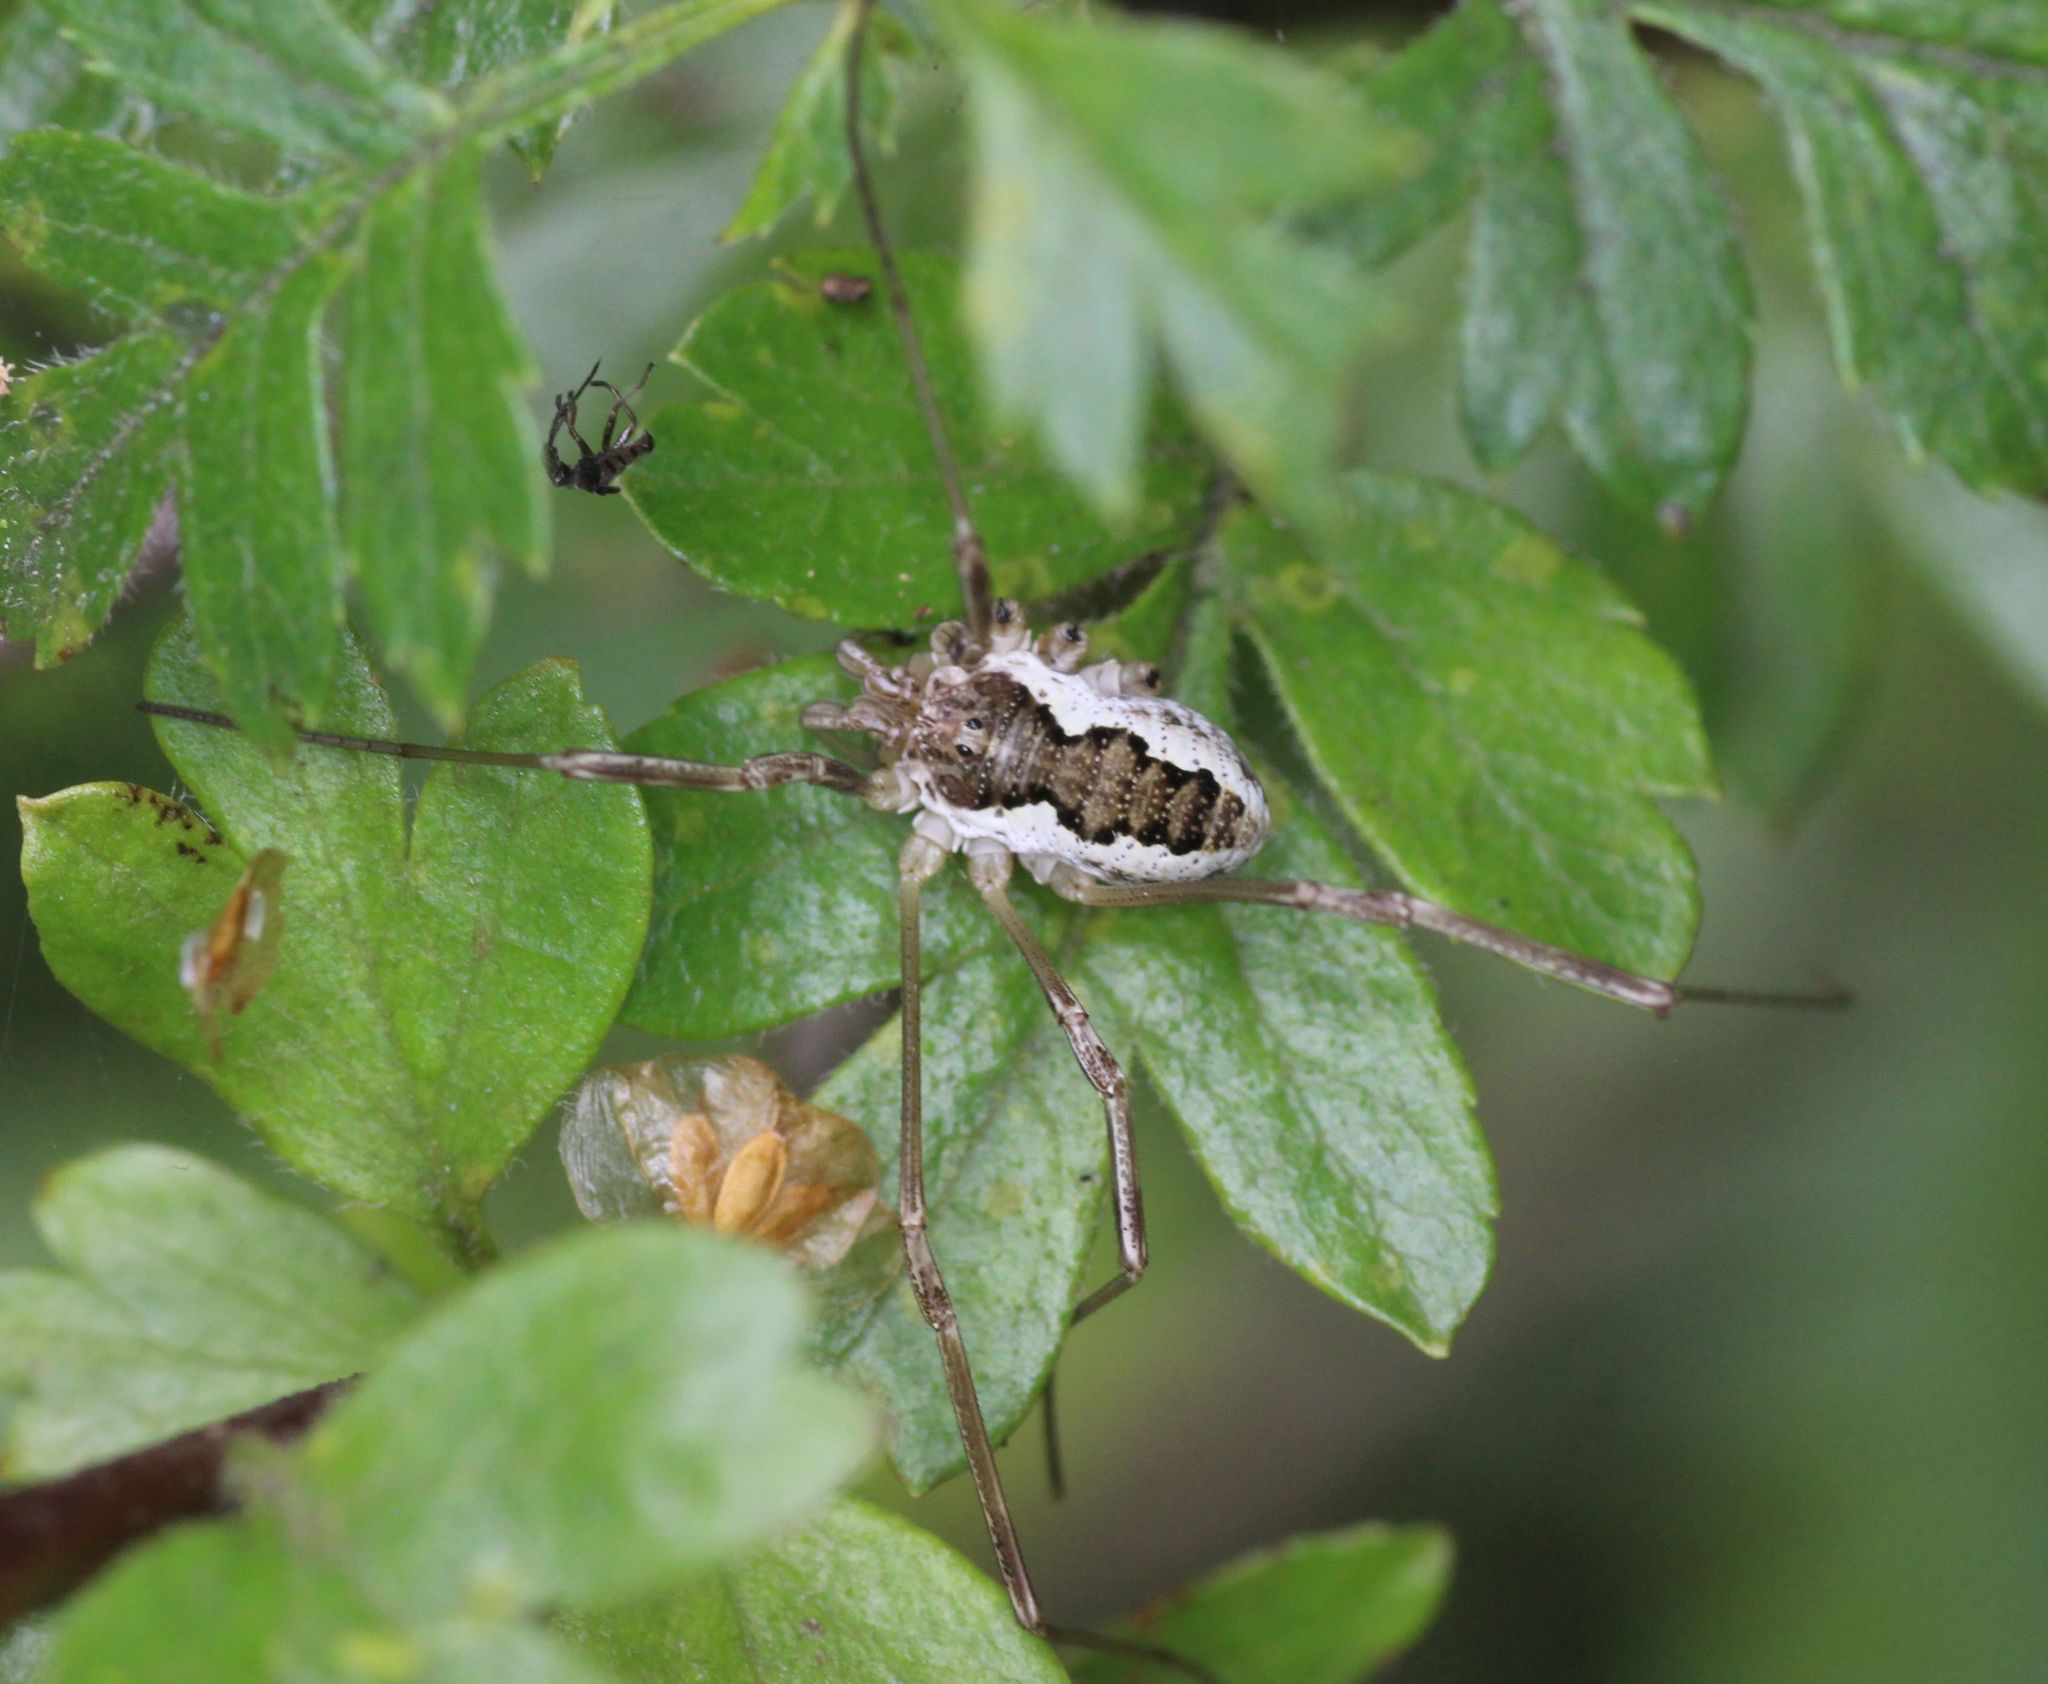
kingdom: Animalia
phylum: Arthropoda
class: Arachnida
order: Opiliones
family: Phalangiidae
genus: Mitopus
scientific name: Mitopus morio
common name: Saddleback harvestman
